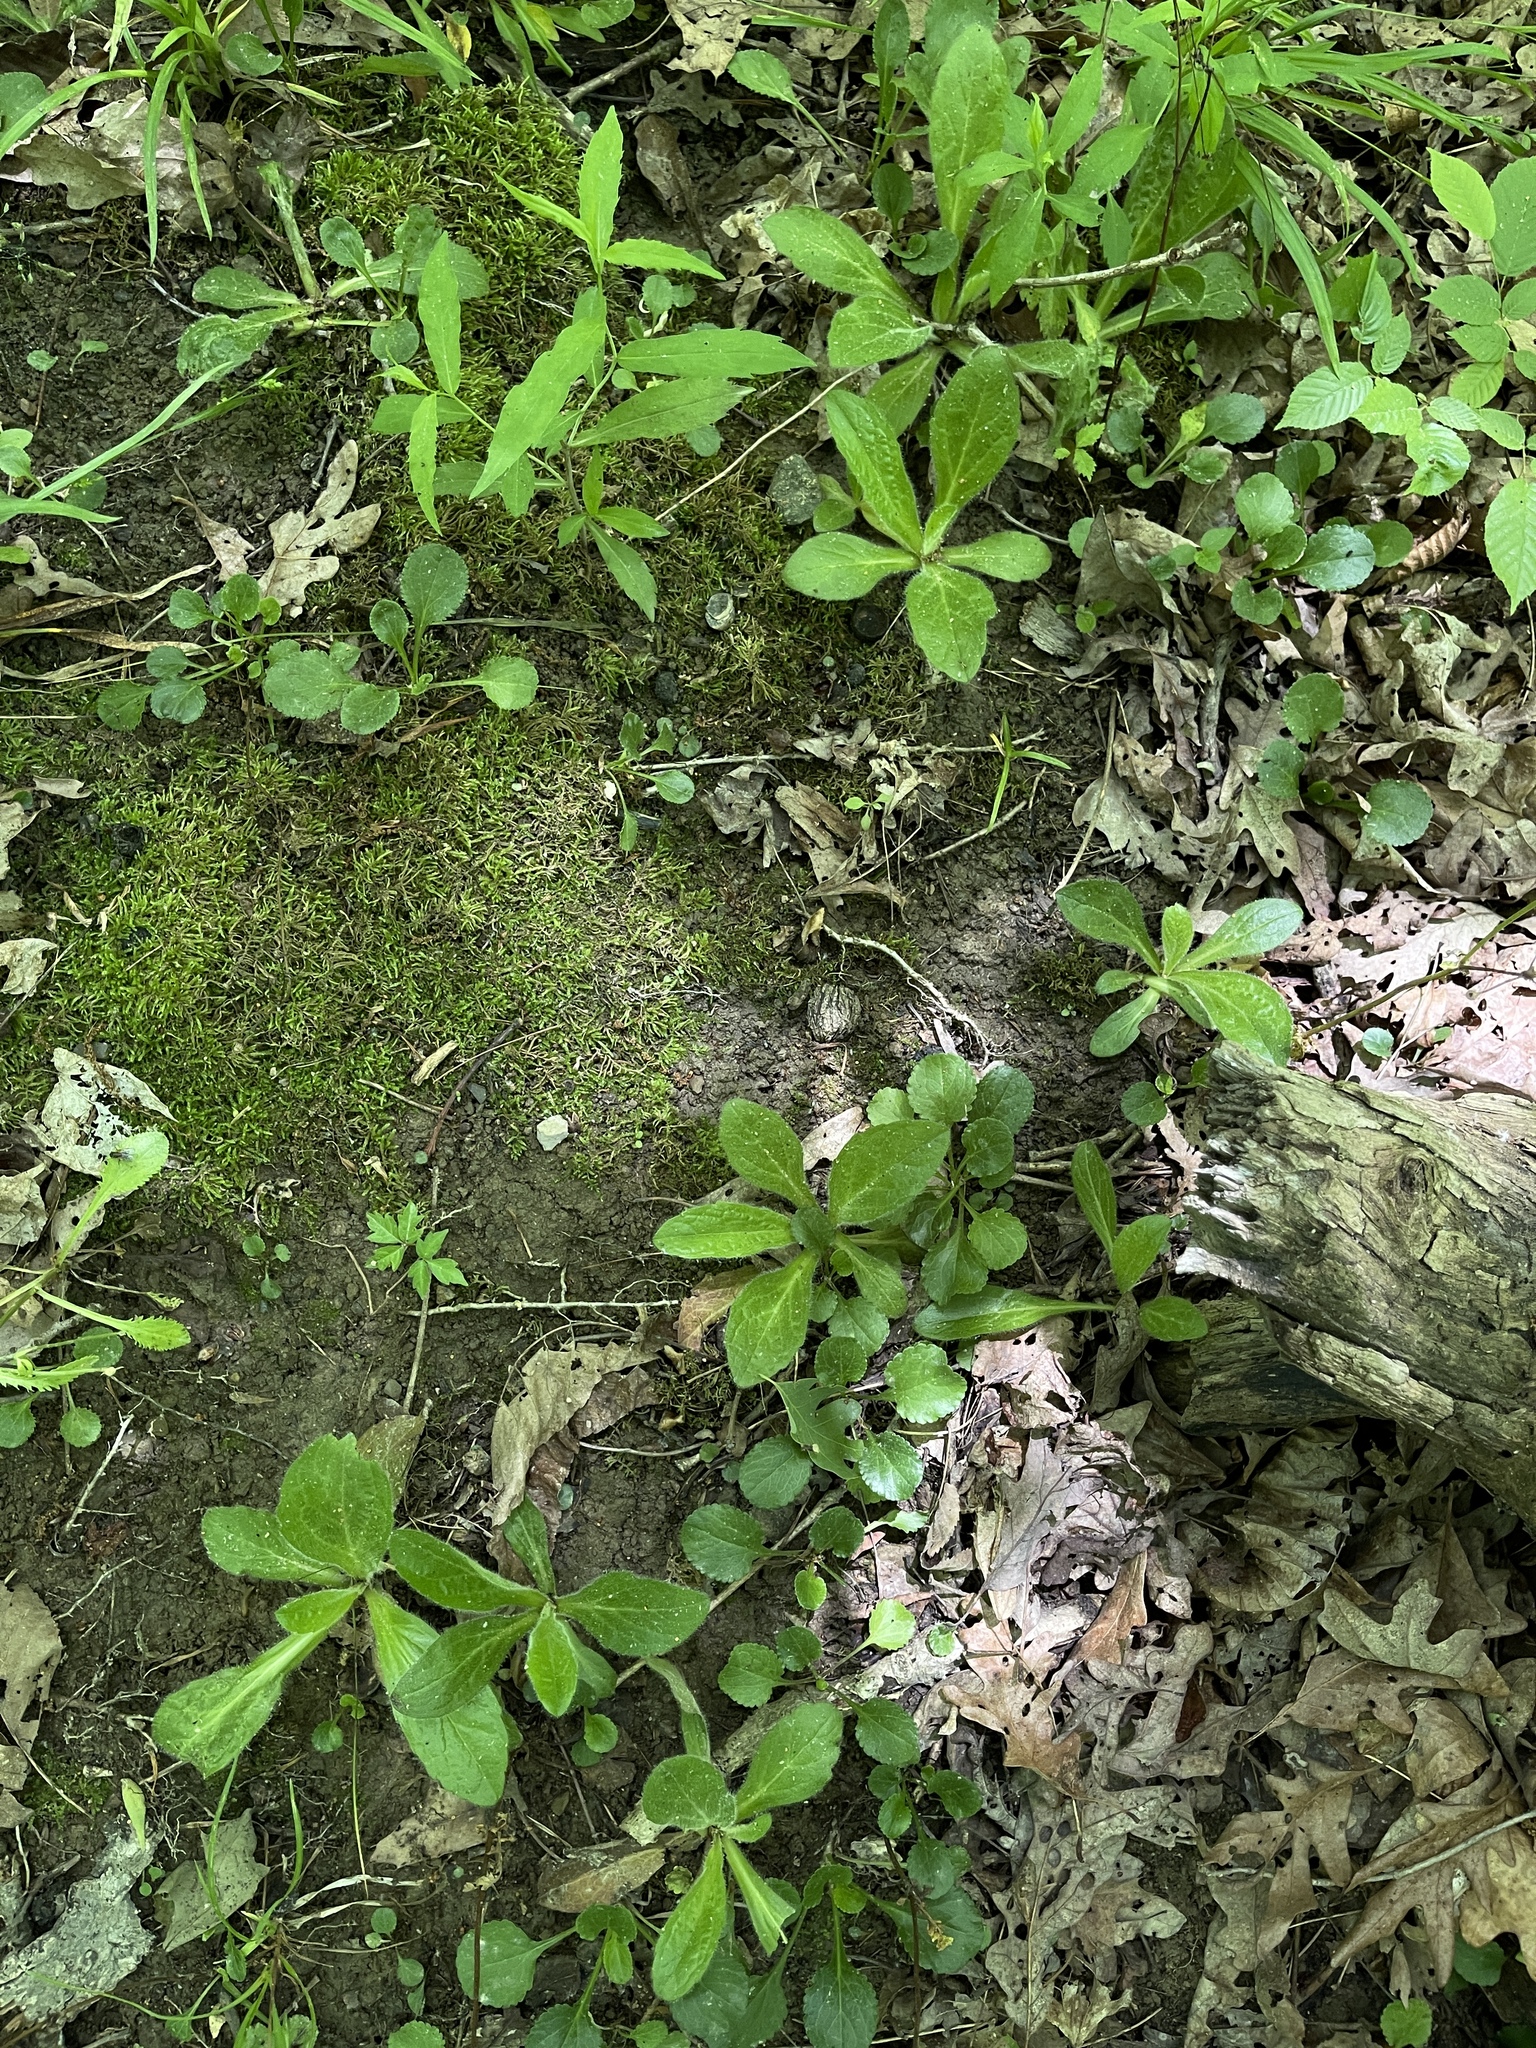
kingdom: Plantae
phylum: Tracheophyta
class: Magnoliopsida
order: Asterales
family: Asteraceae
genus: Erigeron
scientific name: Erigeron pulchellus
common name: Hairy fleabane
